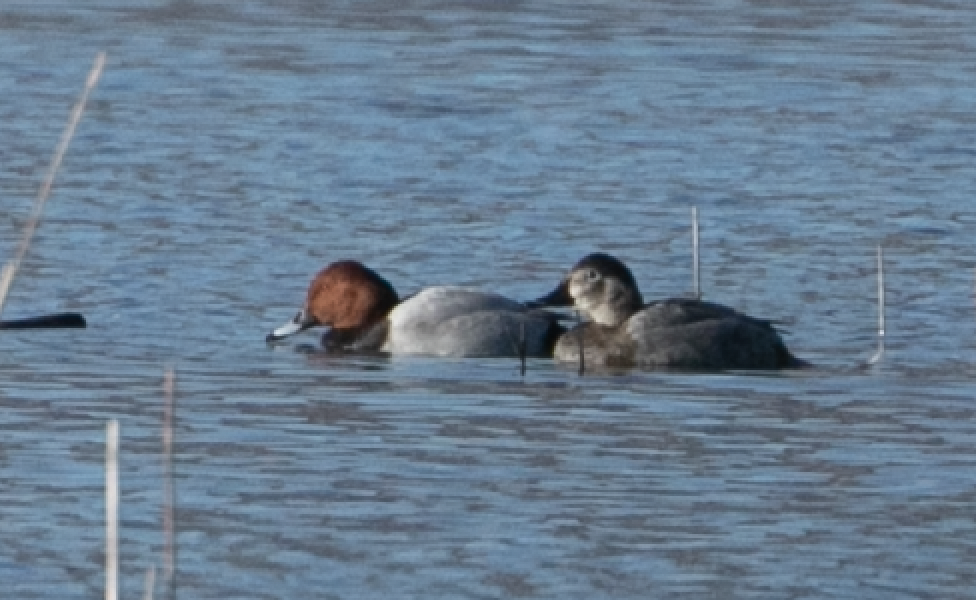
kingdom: Animalia
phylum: Chordata
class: Aves
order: Anseriformes
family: Anatidae
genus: Aythya
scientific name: Aythya ferina
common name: Common pochard
